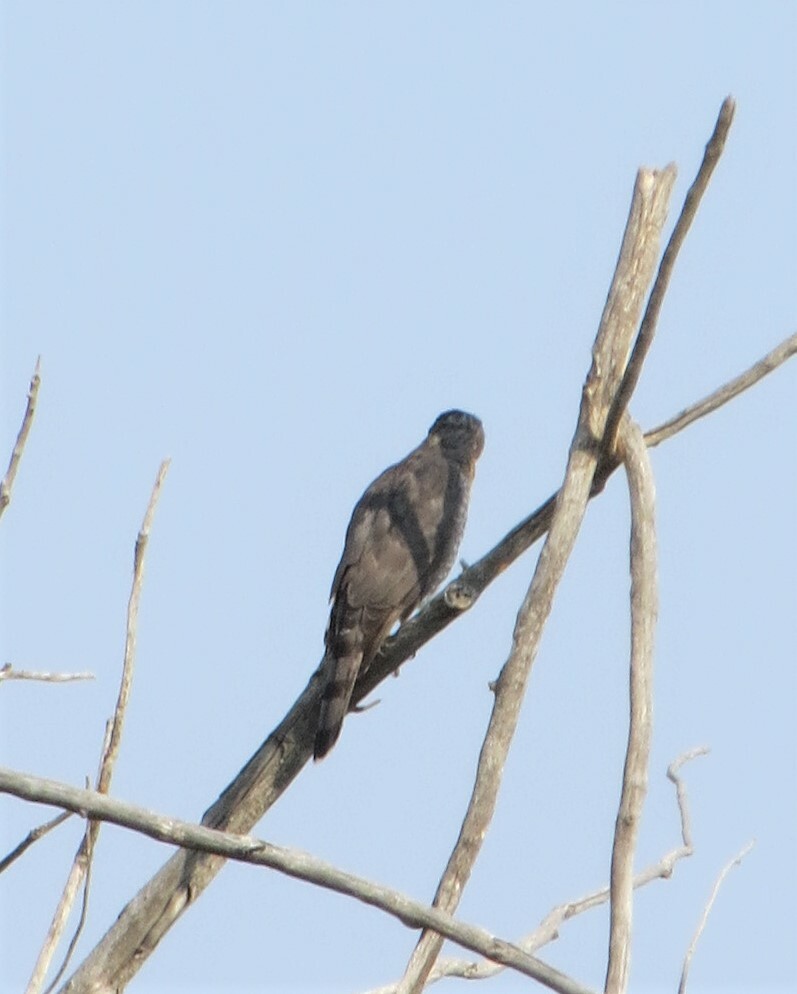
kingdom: Animalia
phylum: Chordata
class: Aves
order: Accipitriformes
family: Accipitridae
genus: Accipiter
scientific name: Accipiter cooperii
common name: Cooper's hawk
